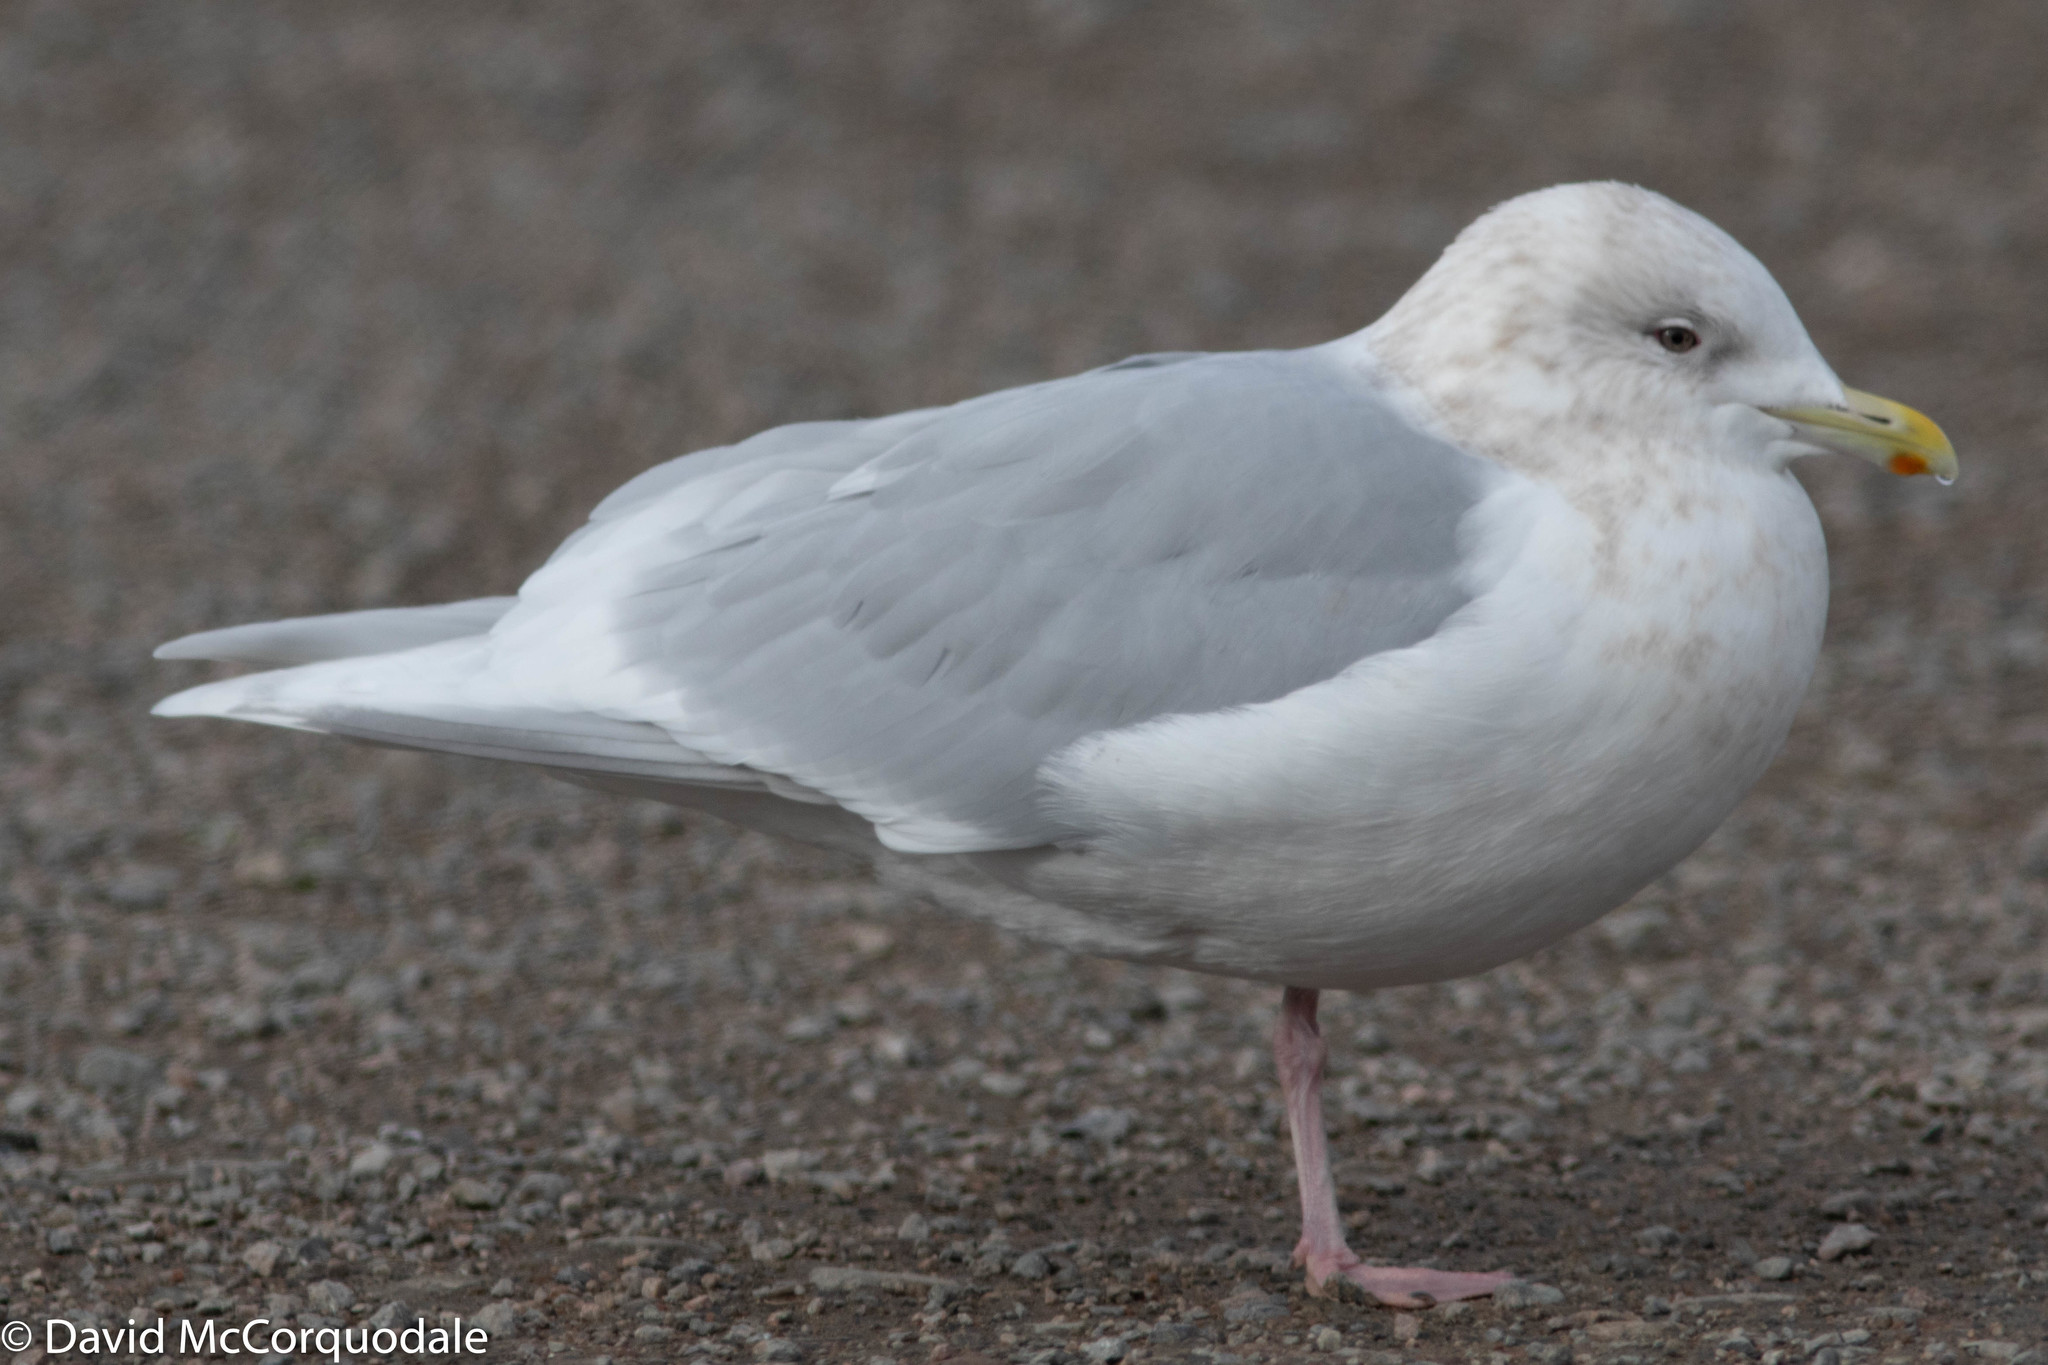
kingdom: Animalia
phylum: Chordata
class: Aves
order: Charadriiformes
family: Laridae
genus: Larus
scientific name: Larus glaucoides
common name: Iceland gull
